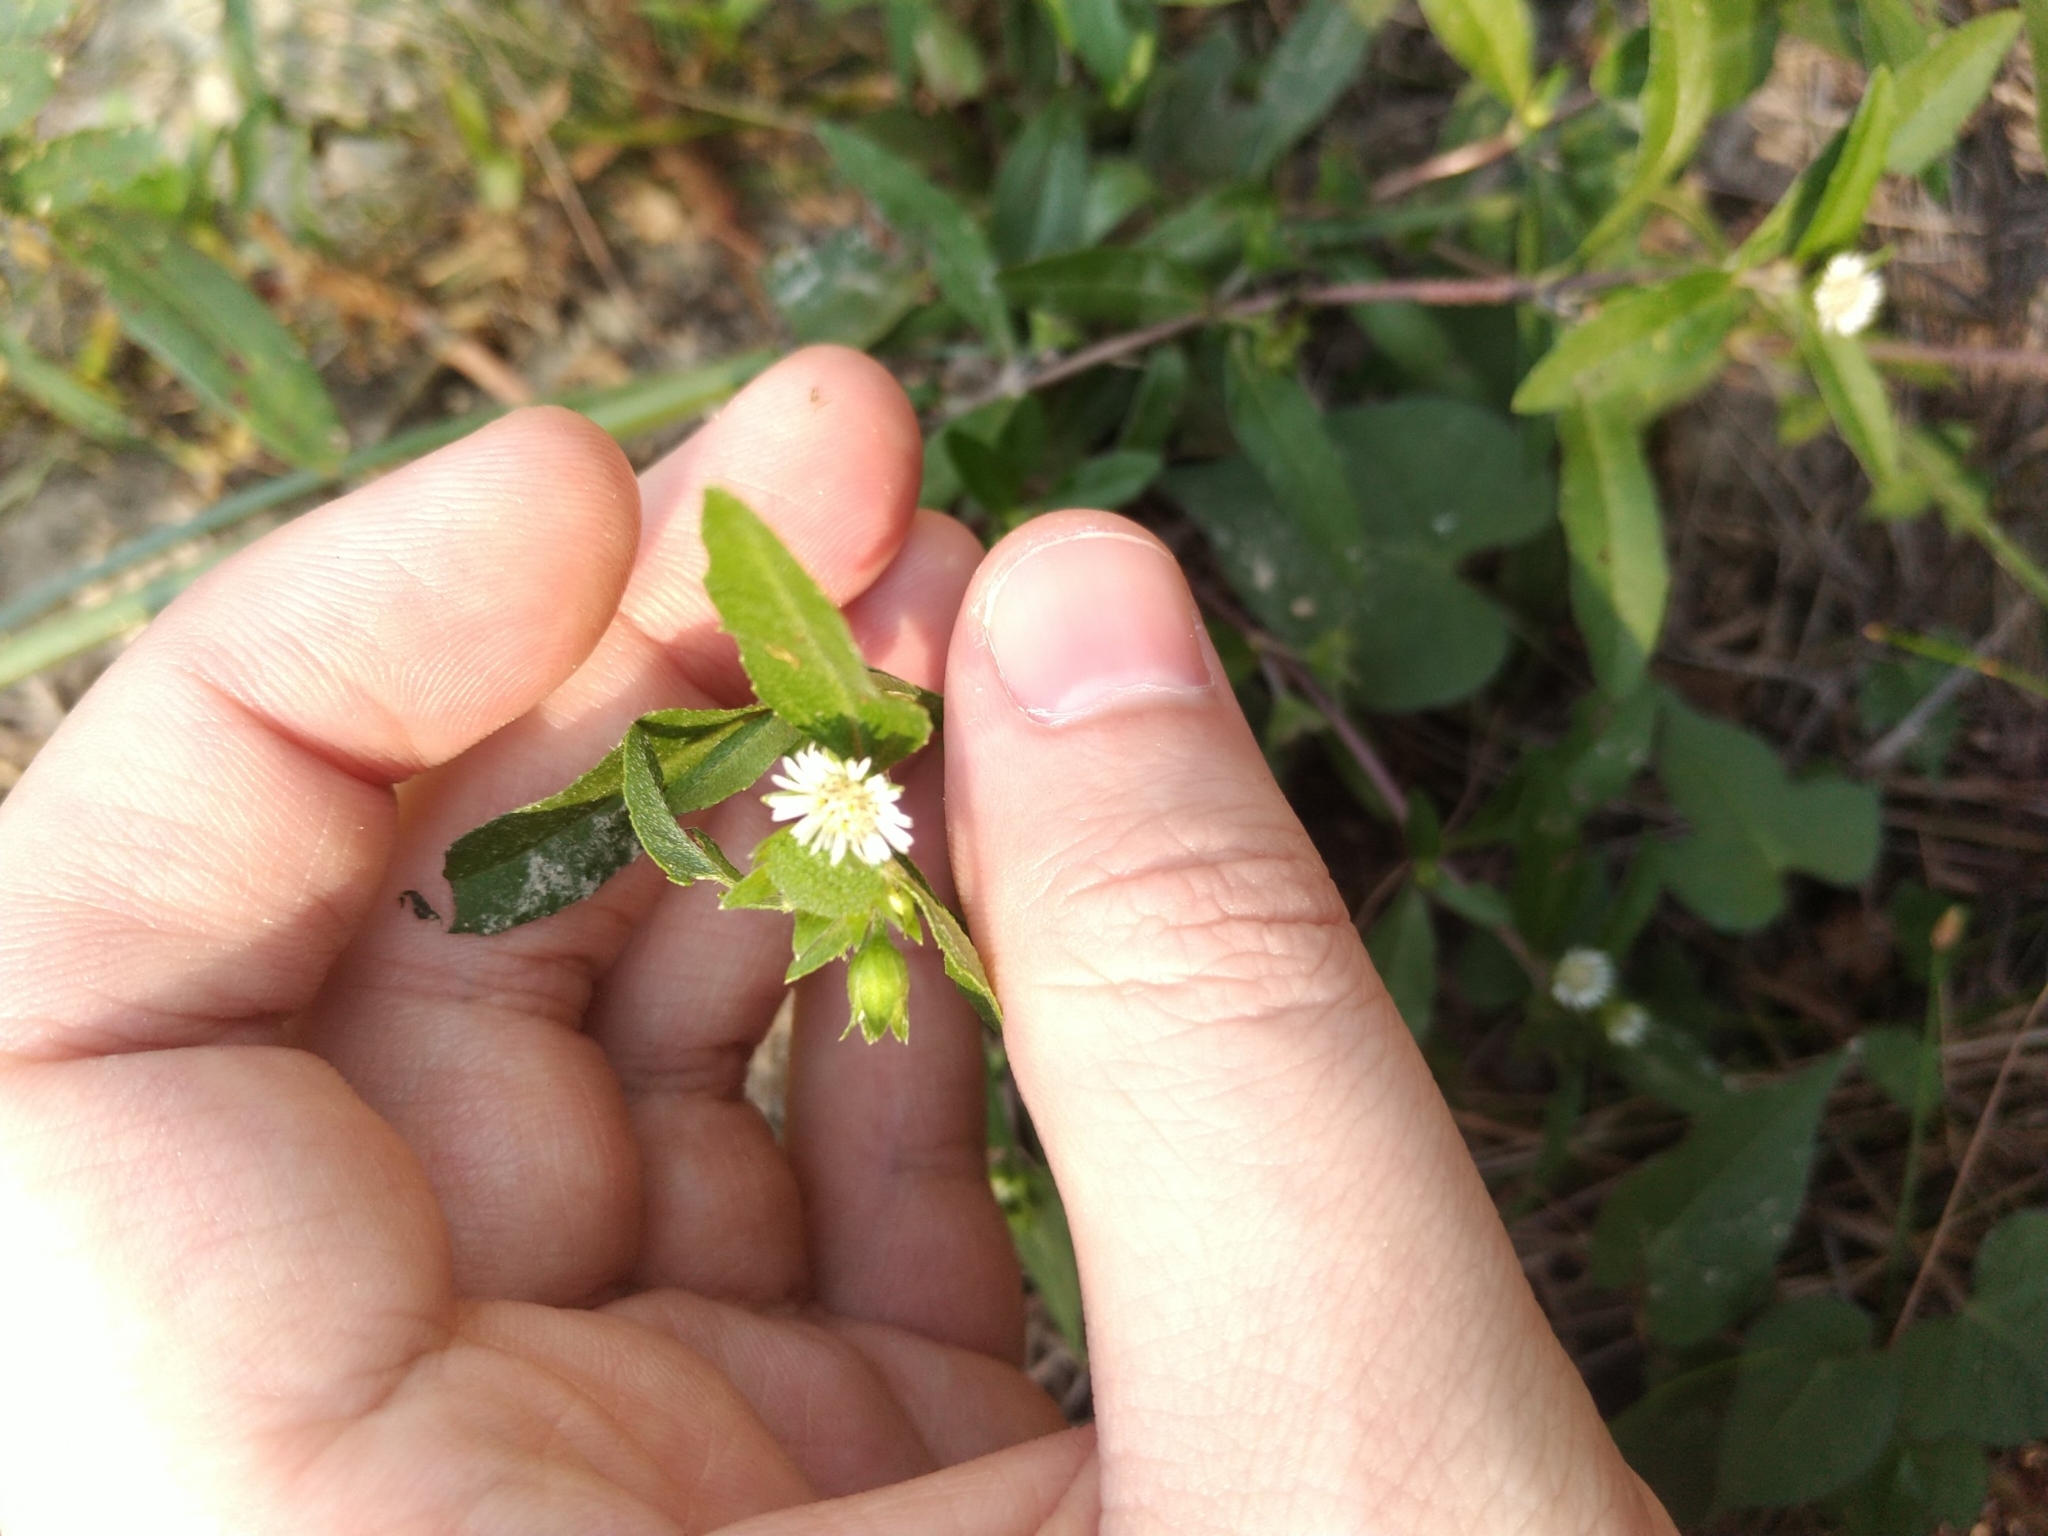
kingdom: Plantae
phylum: Tracheophyta
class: Magnoliopsida
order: Asterales
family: Asteraceae
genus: Eclipta
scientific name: Eclipta prostrata
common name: False daisy
